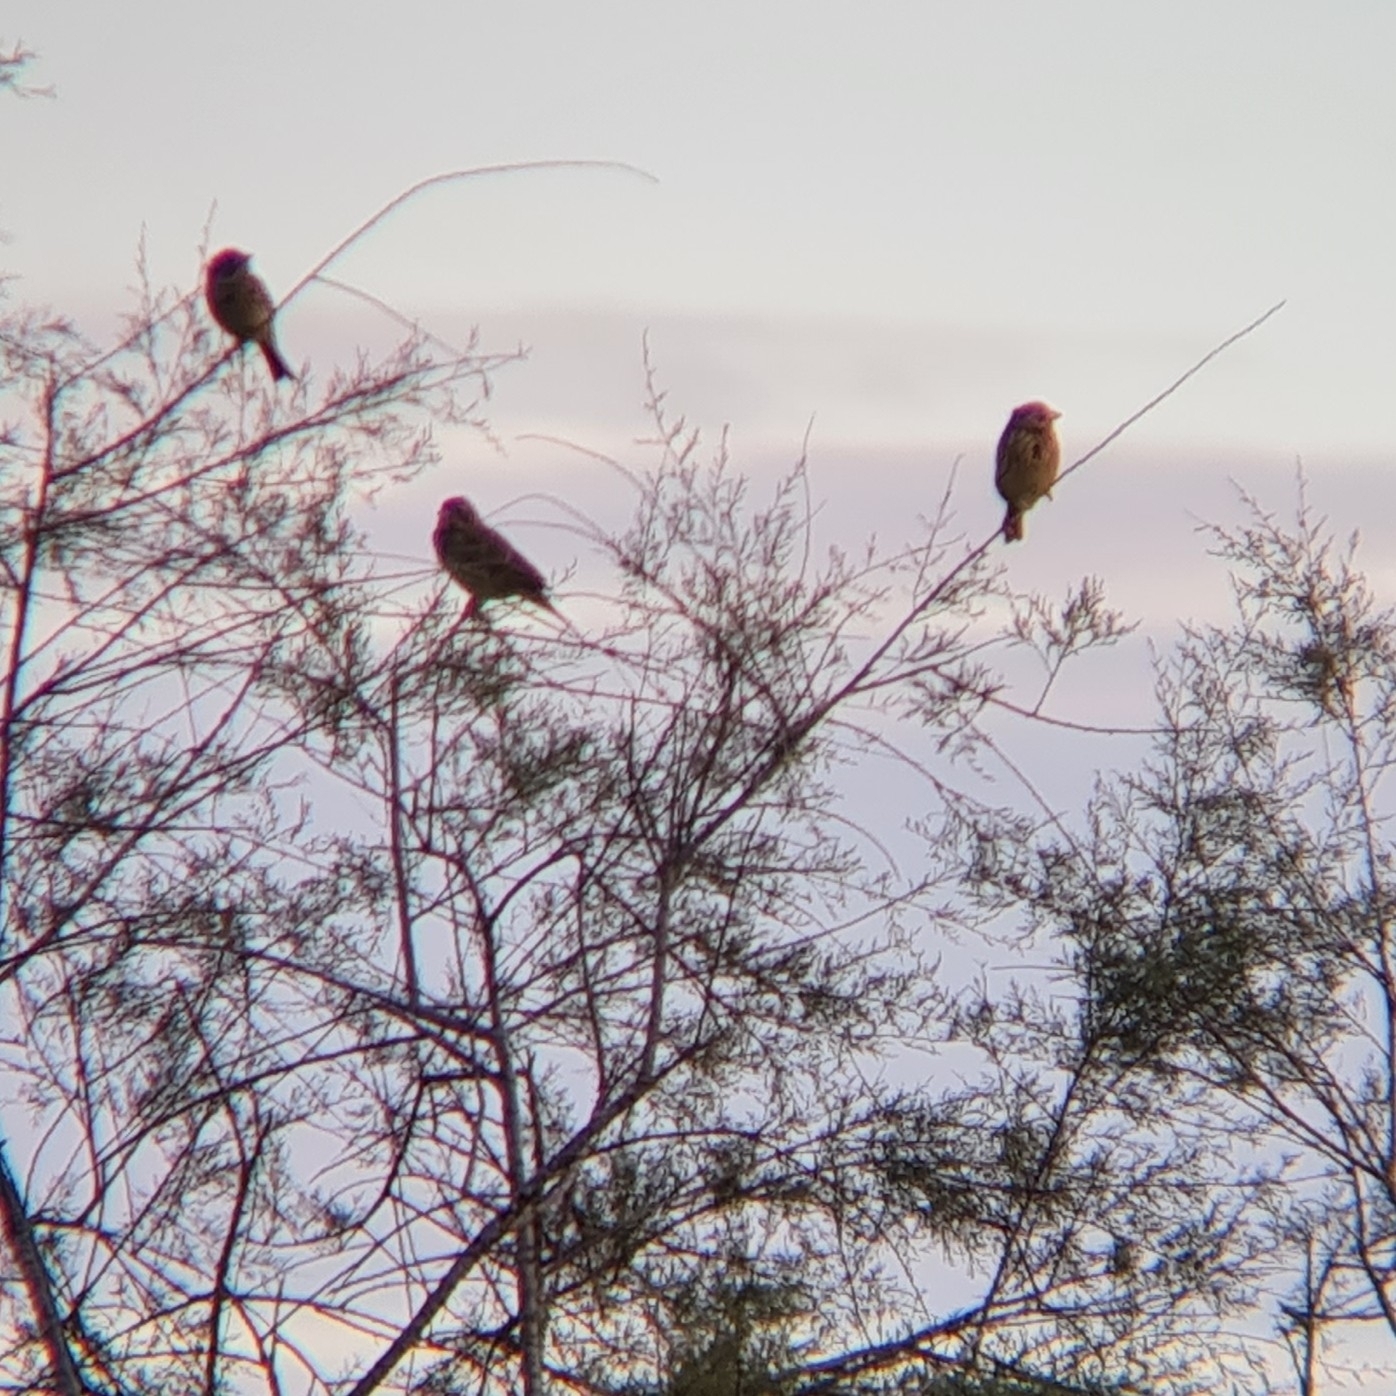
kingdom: Animalia
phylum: Chordata
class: Aves
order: Passeriformes
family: Emberizidae
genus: Emberiza
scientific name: Emberiza calandra
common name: Corn bunting
